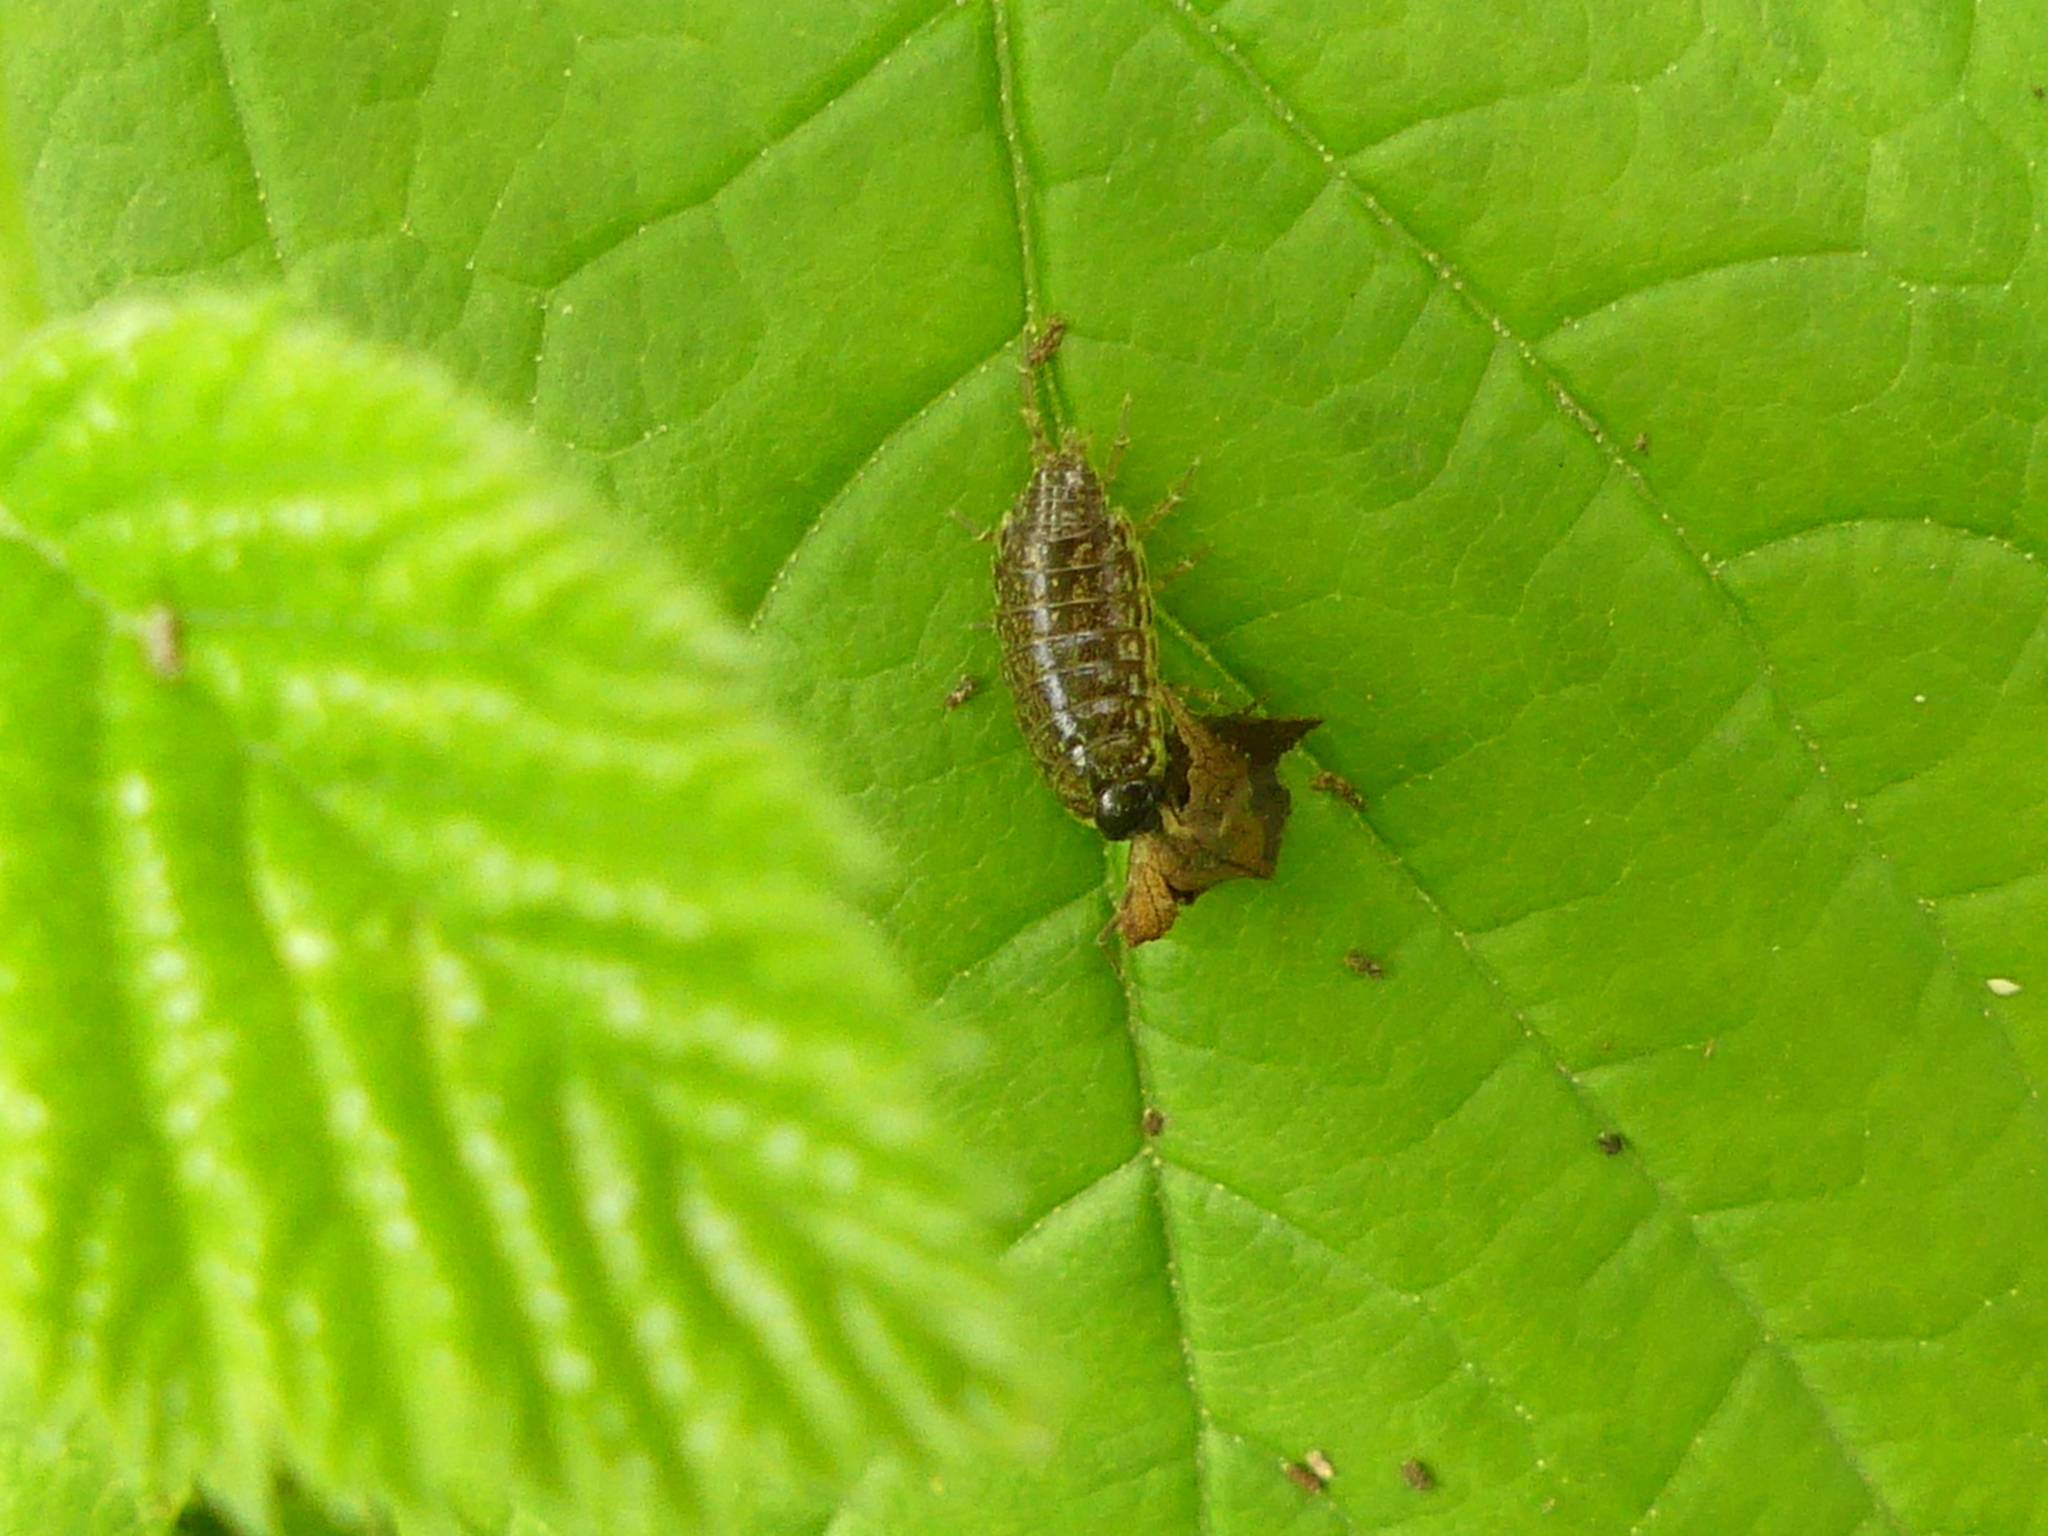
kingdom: Animalia
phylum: Arthropoda
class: Malacostraca
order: Isopoda
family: Philosciidae
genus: Philoscia
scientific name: Philoscia muscorum
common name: Common striped woodlouse
